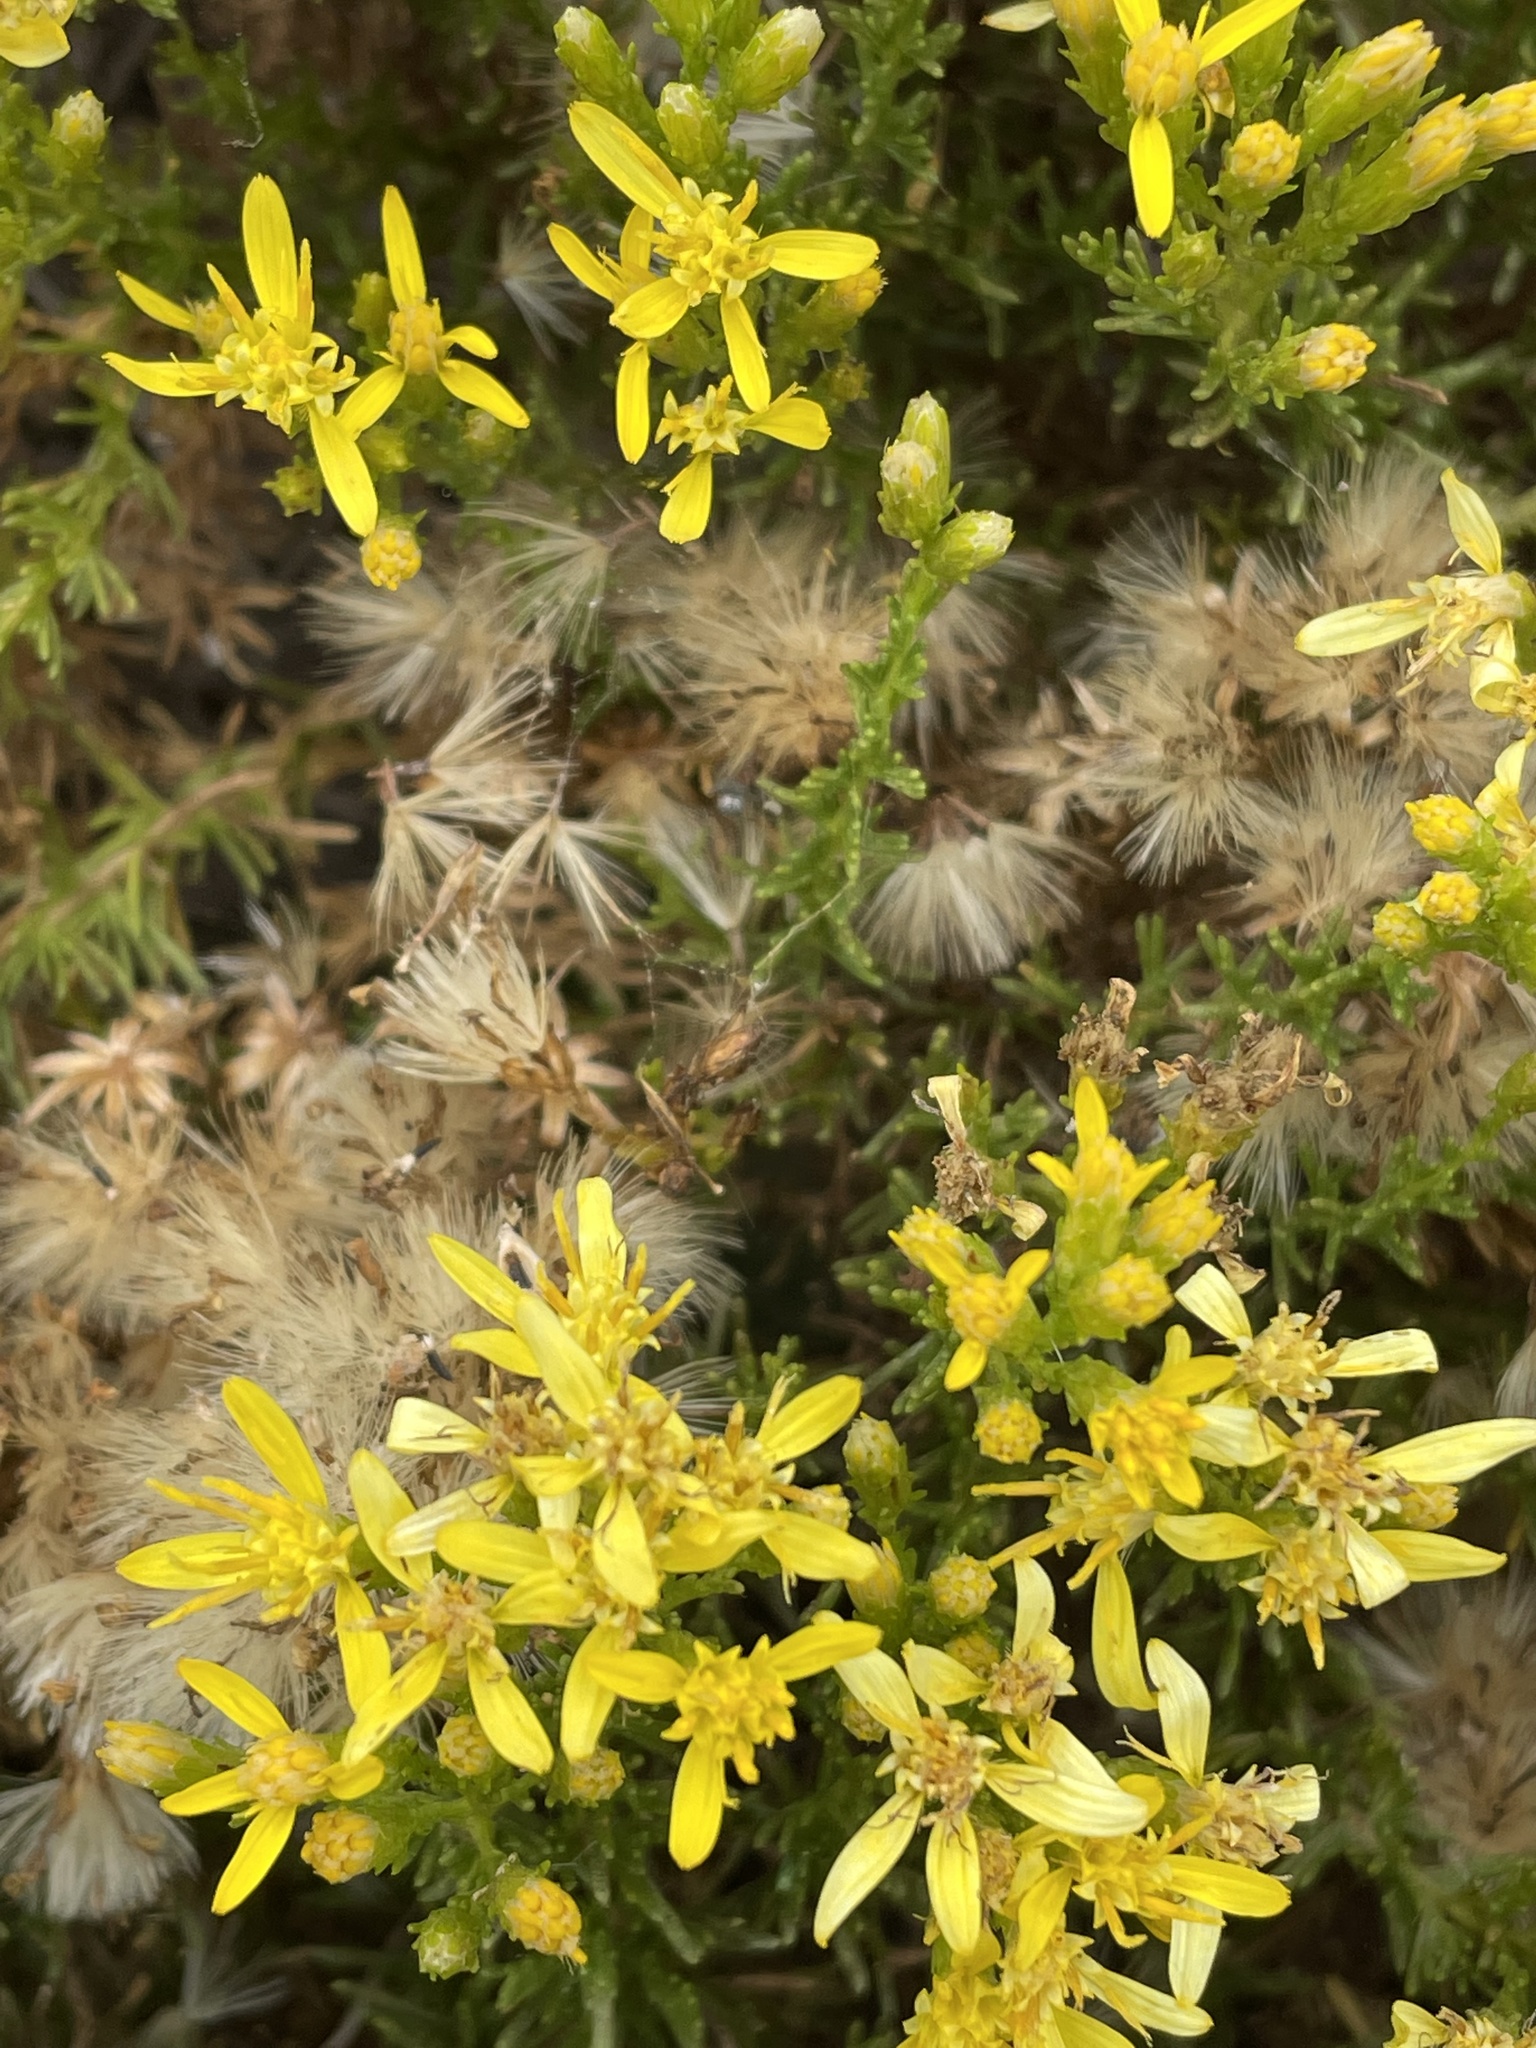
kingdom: Plantae
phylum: Tracheophyta
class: Magnoliopsida
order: Asterales
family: Asteraceae
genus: Ericameria
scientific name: Ericameria ericoides
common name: California goldenbush
